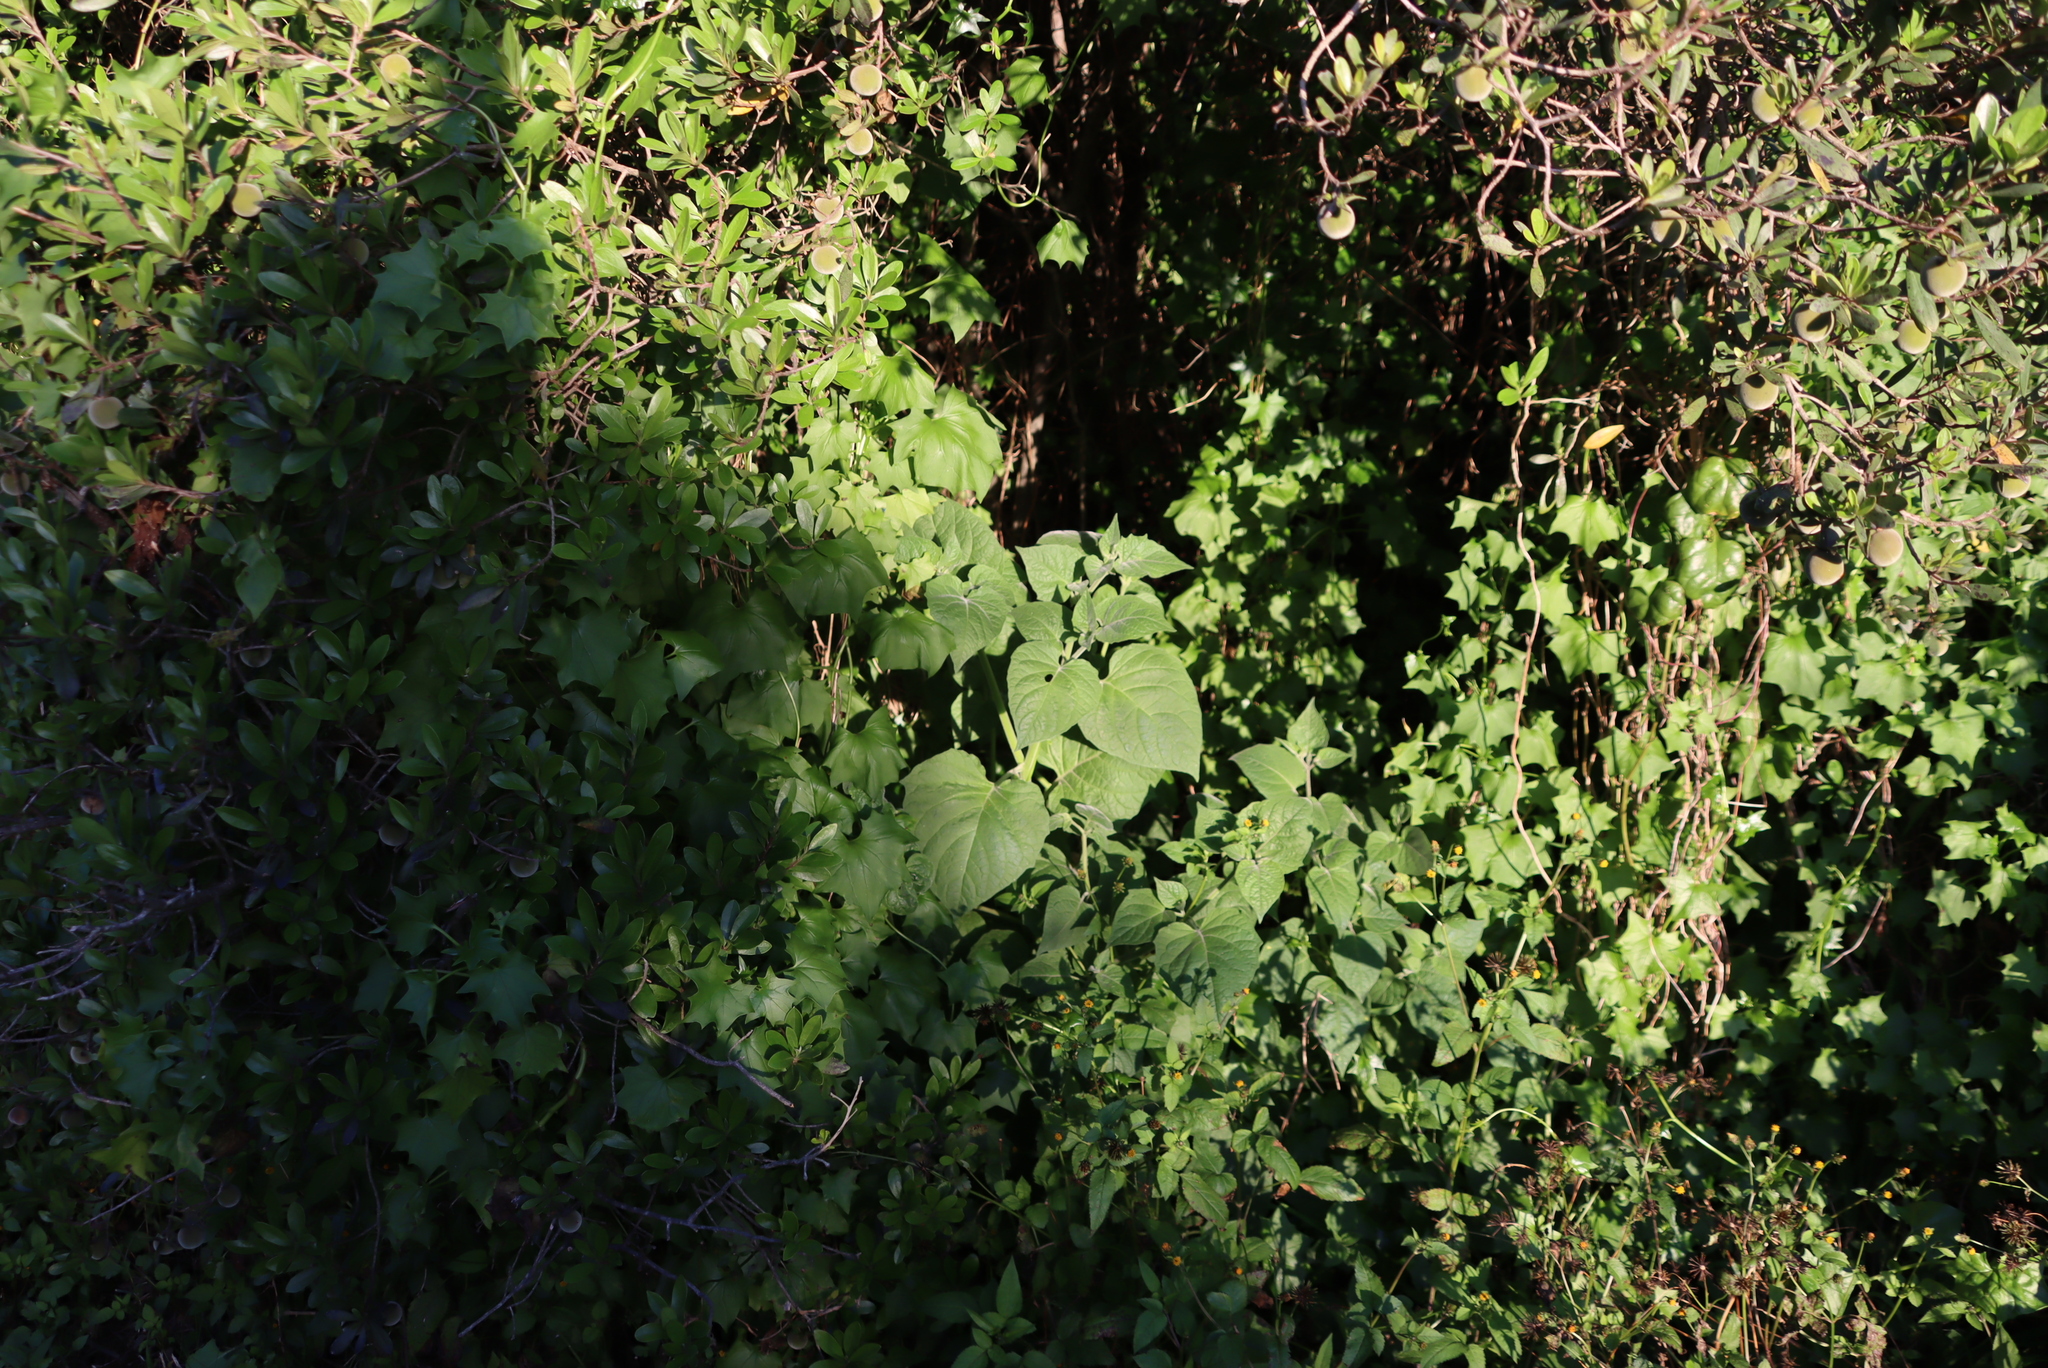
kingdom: Plantae
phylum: Tracheophyta
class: Magnoliopsida
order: Solanales
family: Solanaceae
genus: Physalis
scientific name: Physalis peruviana
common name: Cape-gooseberry
